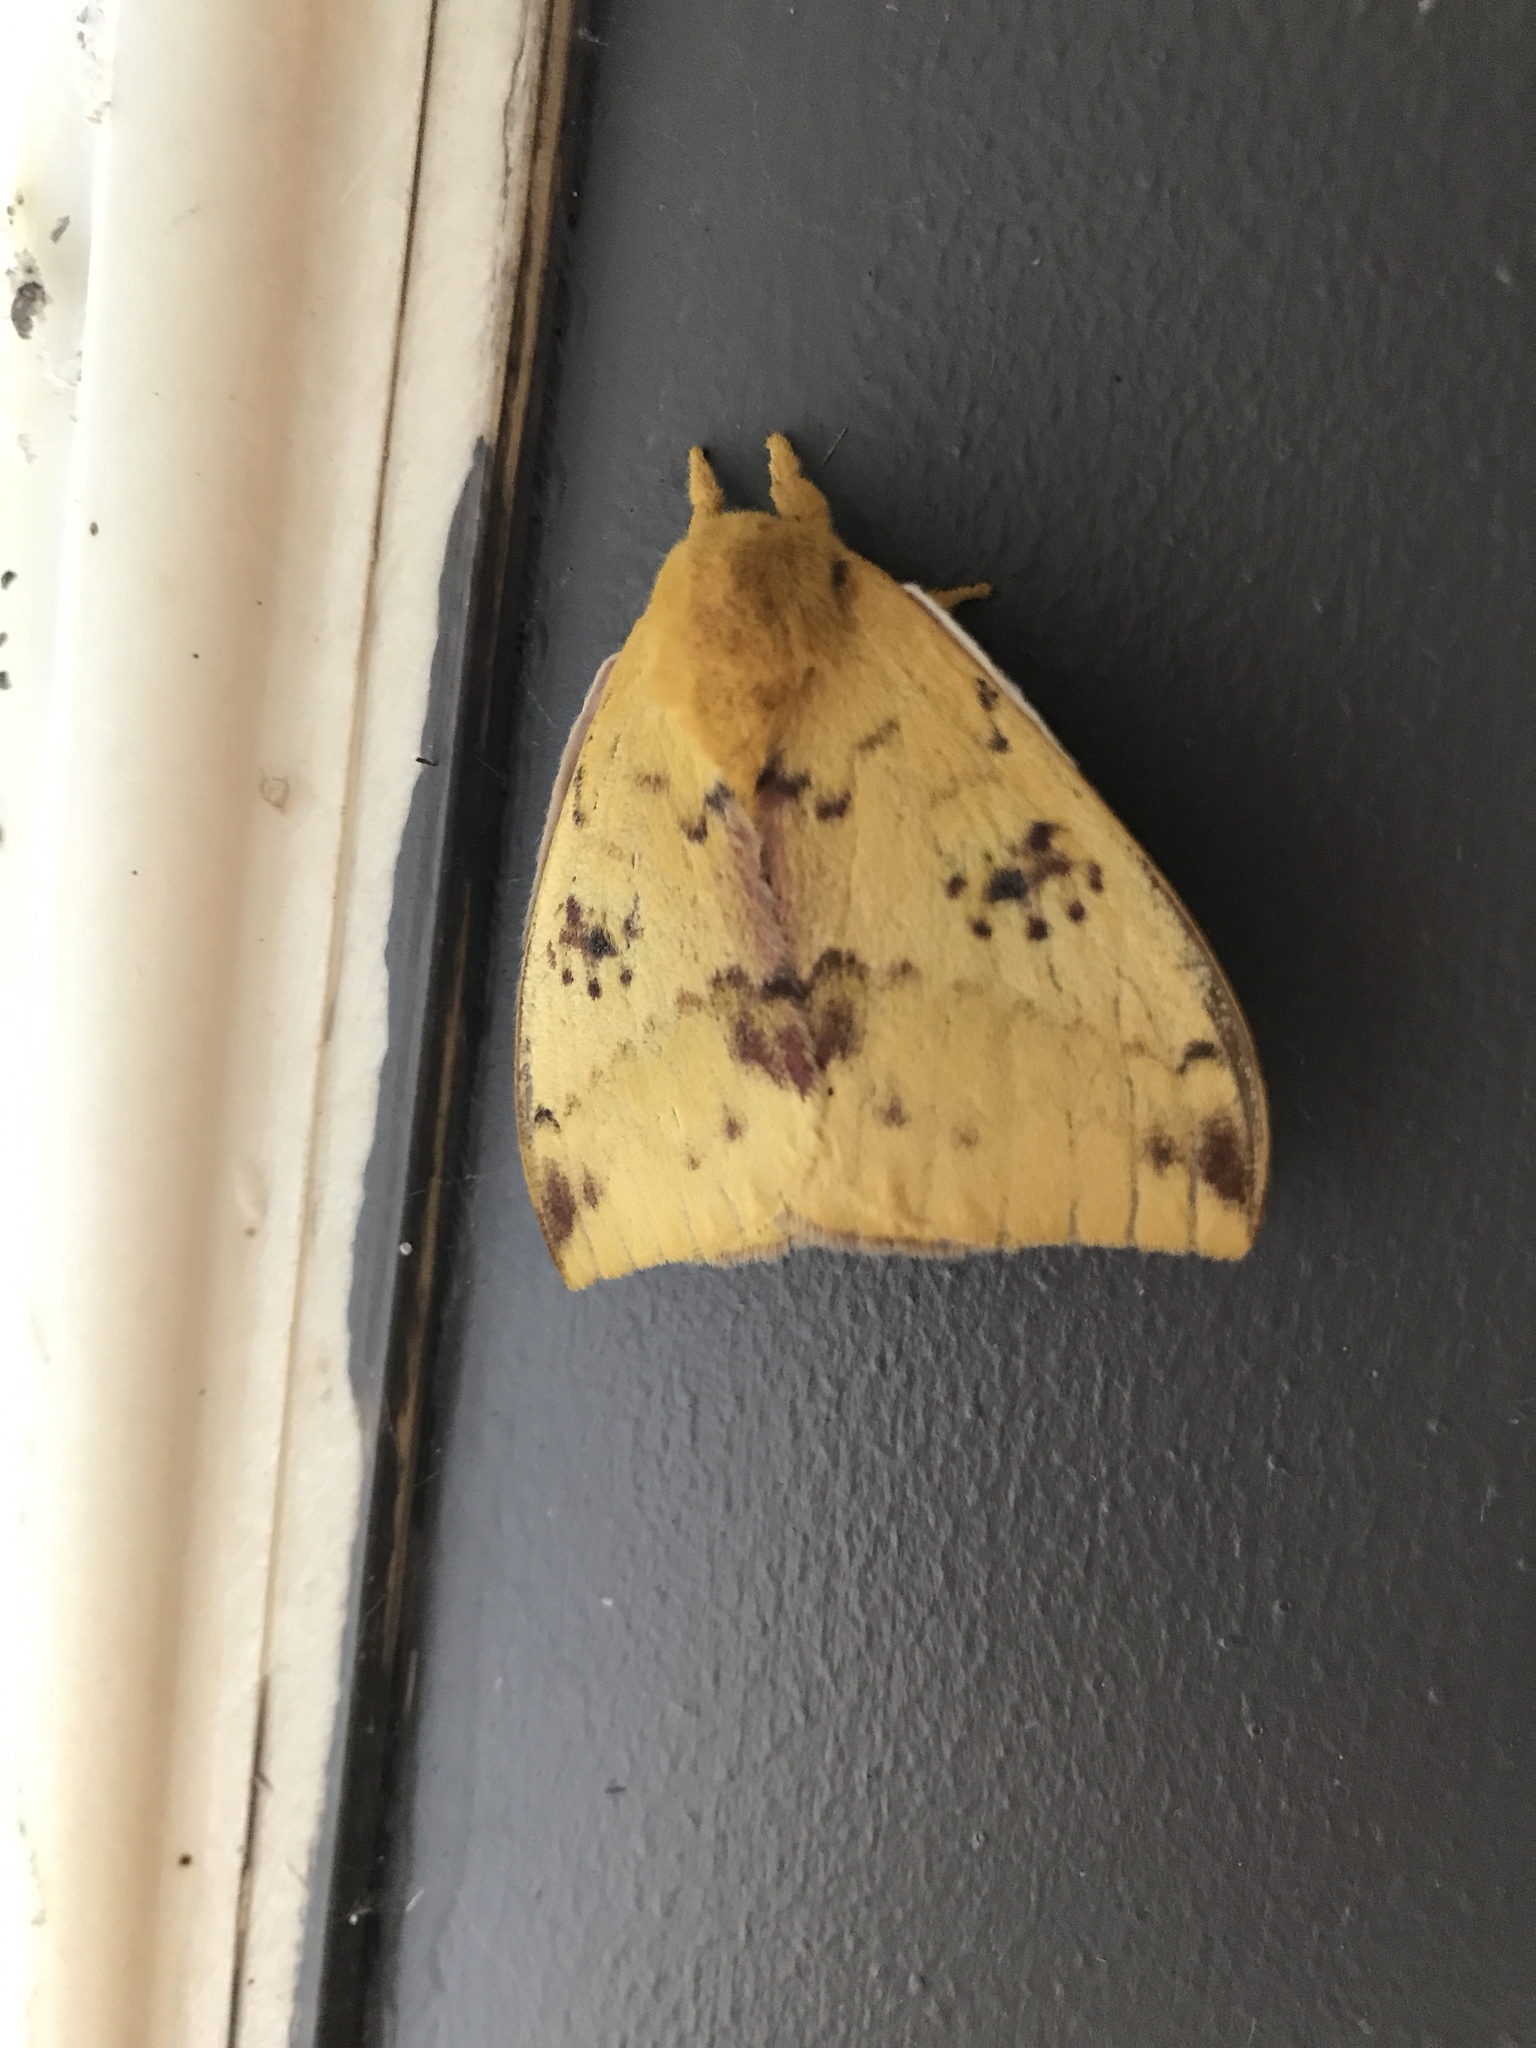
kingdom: Animalia
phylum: Arthropoda
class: Insecta
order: Lepidoptera
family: Saturniidae
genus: Automeris
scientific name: Automeris io
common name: Io moth
